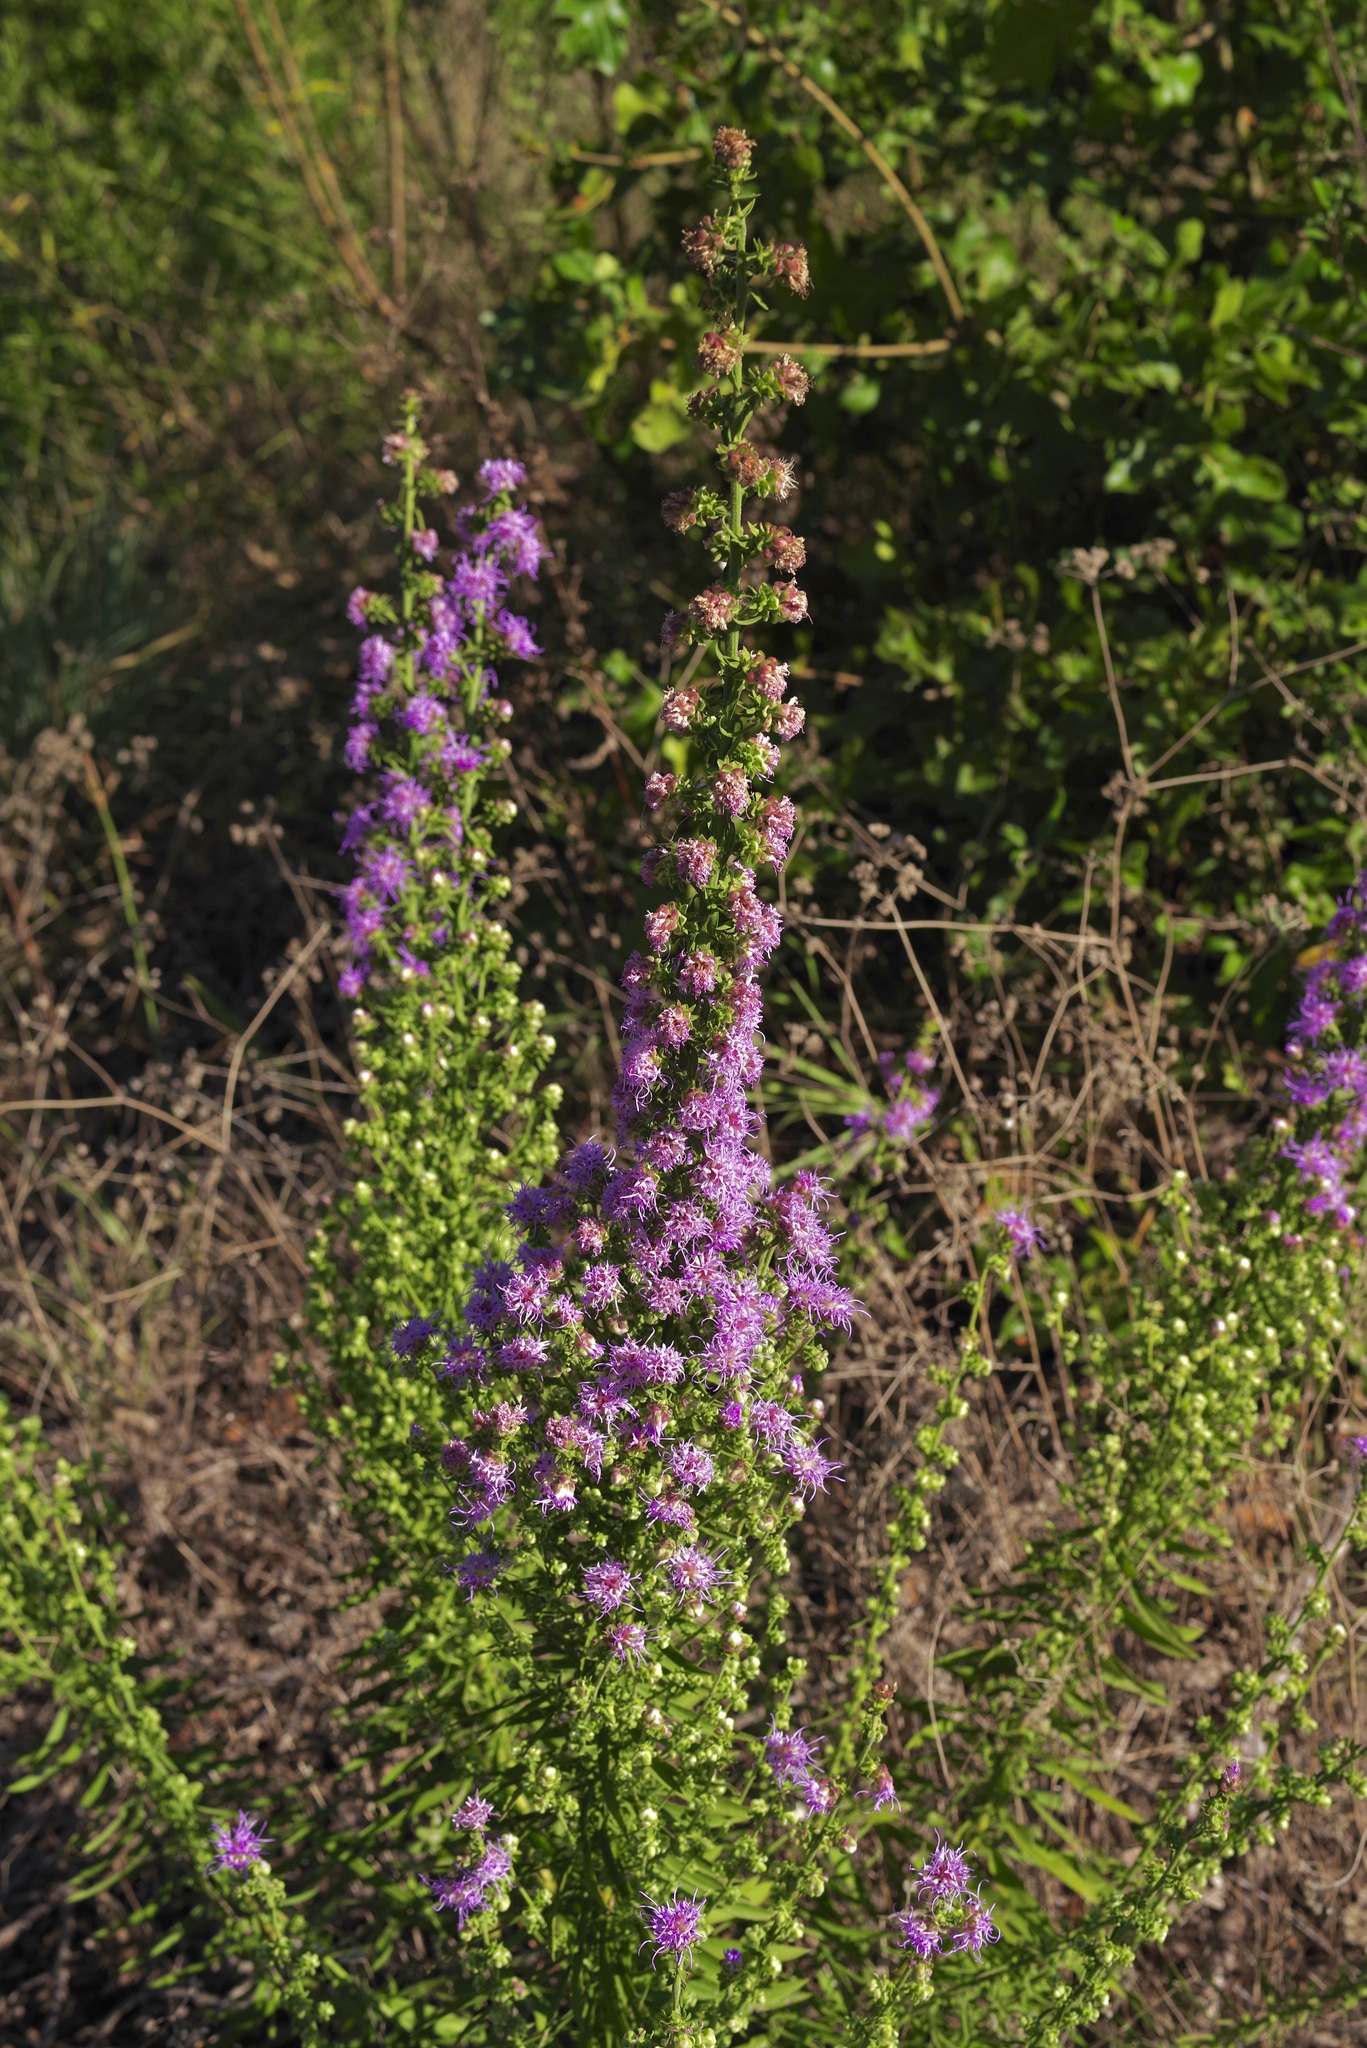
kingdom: Plantae
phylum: Tracheophyta
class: Magnoliopsida
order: Asterales
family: Asteraceae
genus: Liatris
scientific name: Liatris aspera
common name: Lacerate blazing-star
